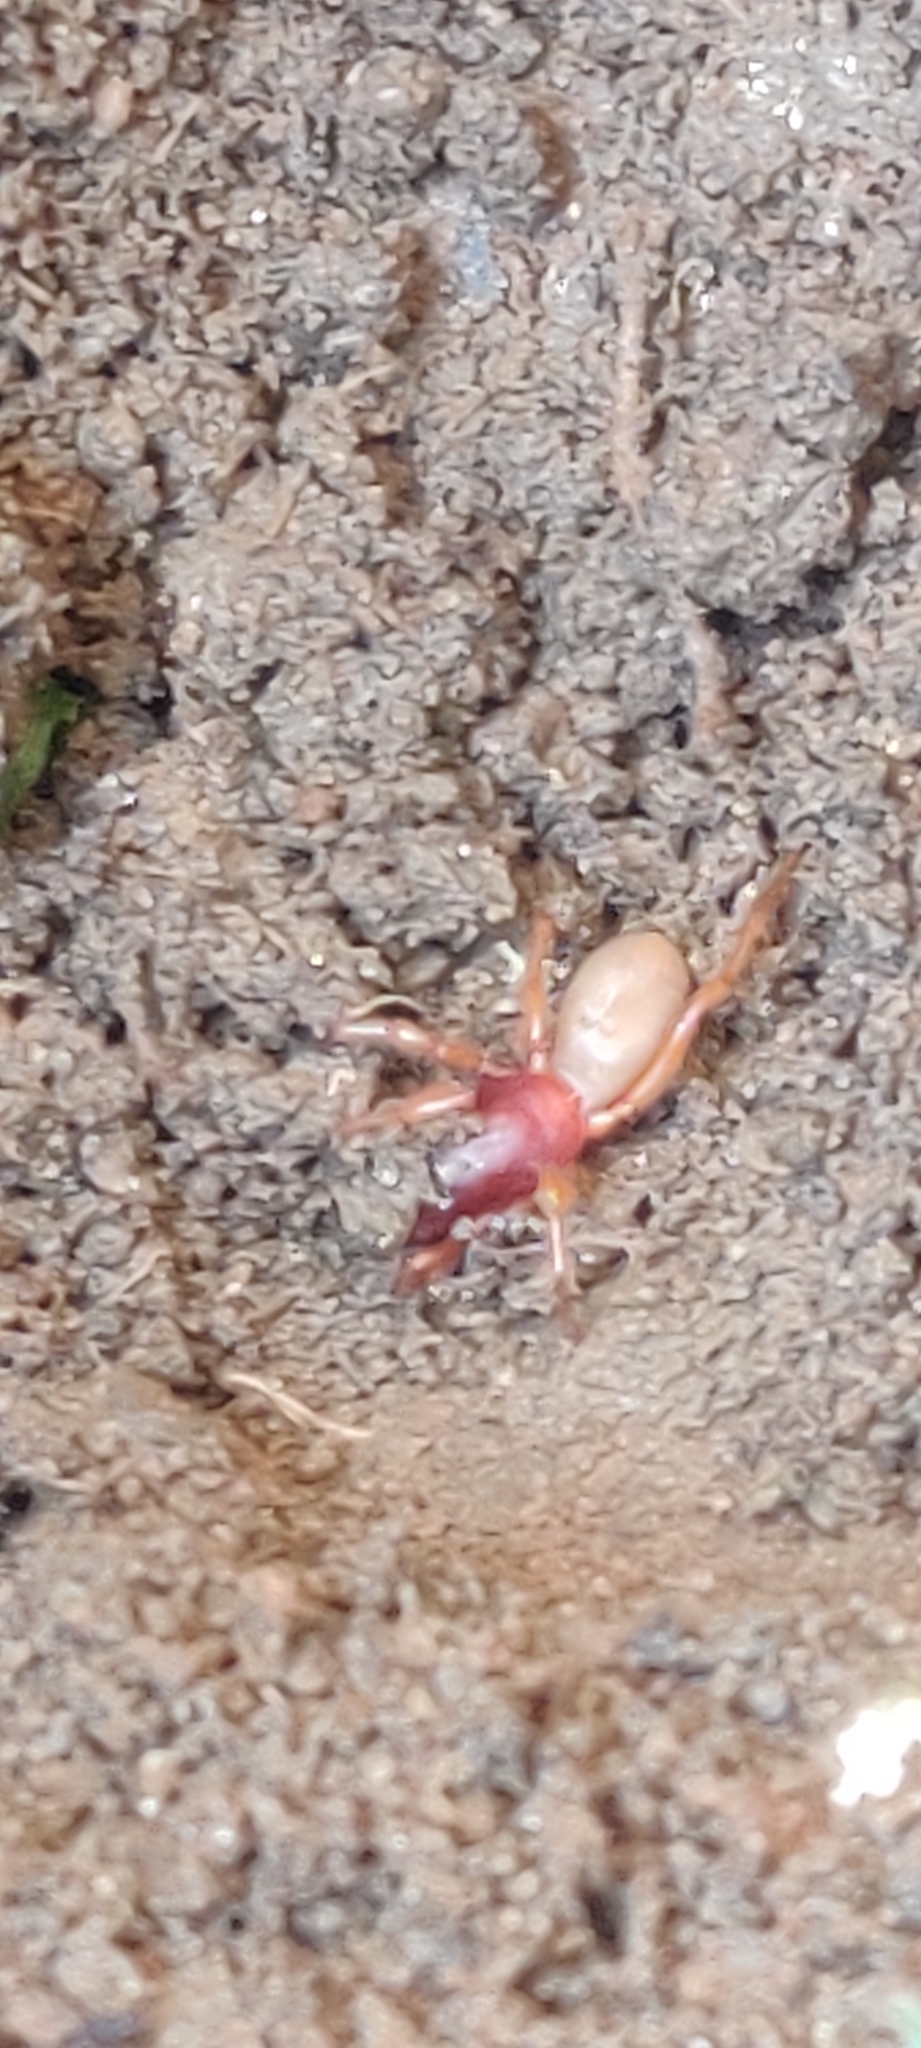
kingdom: Animalia
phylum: Arthropoda
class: Arachnida
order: Araneae
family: Dysderidae
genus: Dysdera
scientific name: Dysdera crocata
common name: Woodlouse spider
